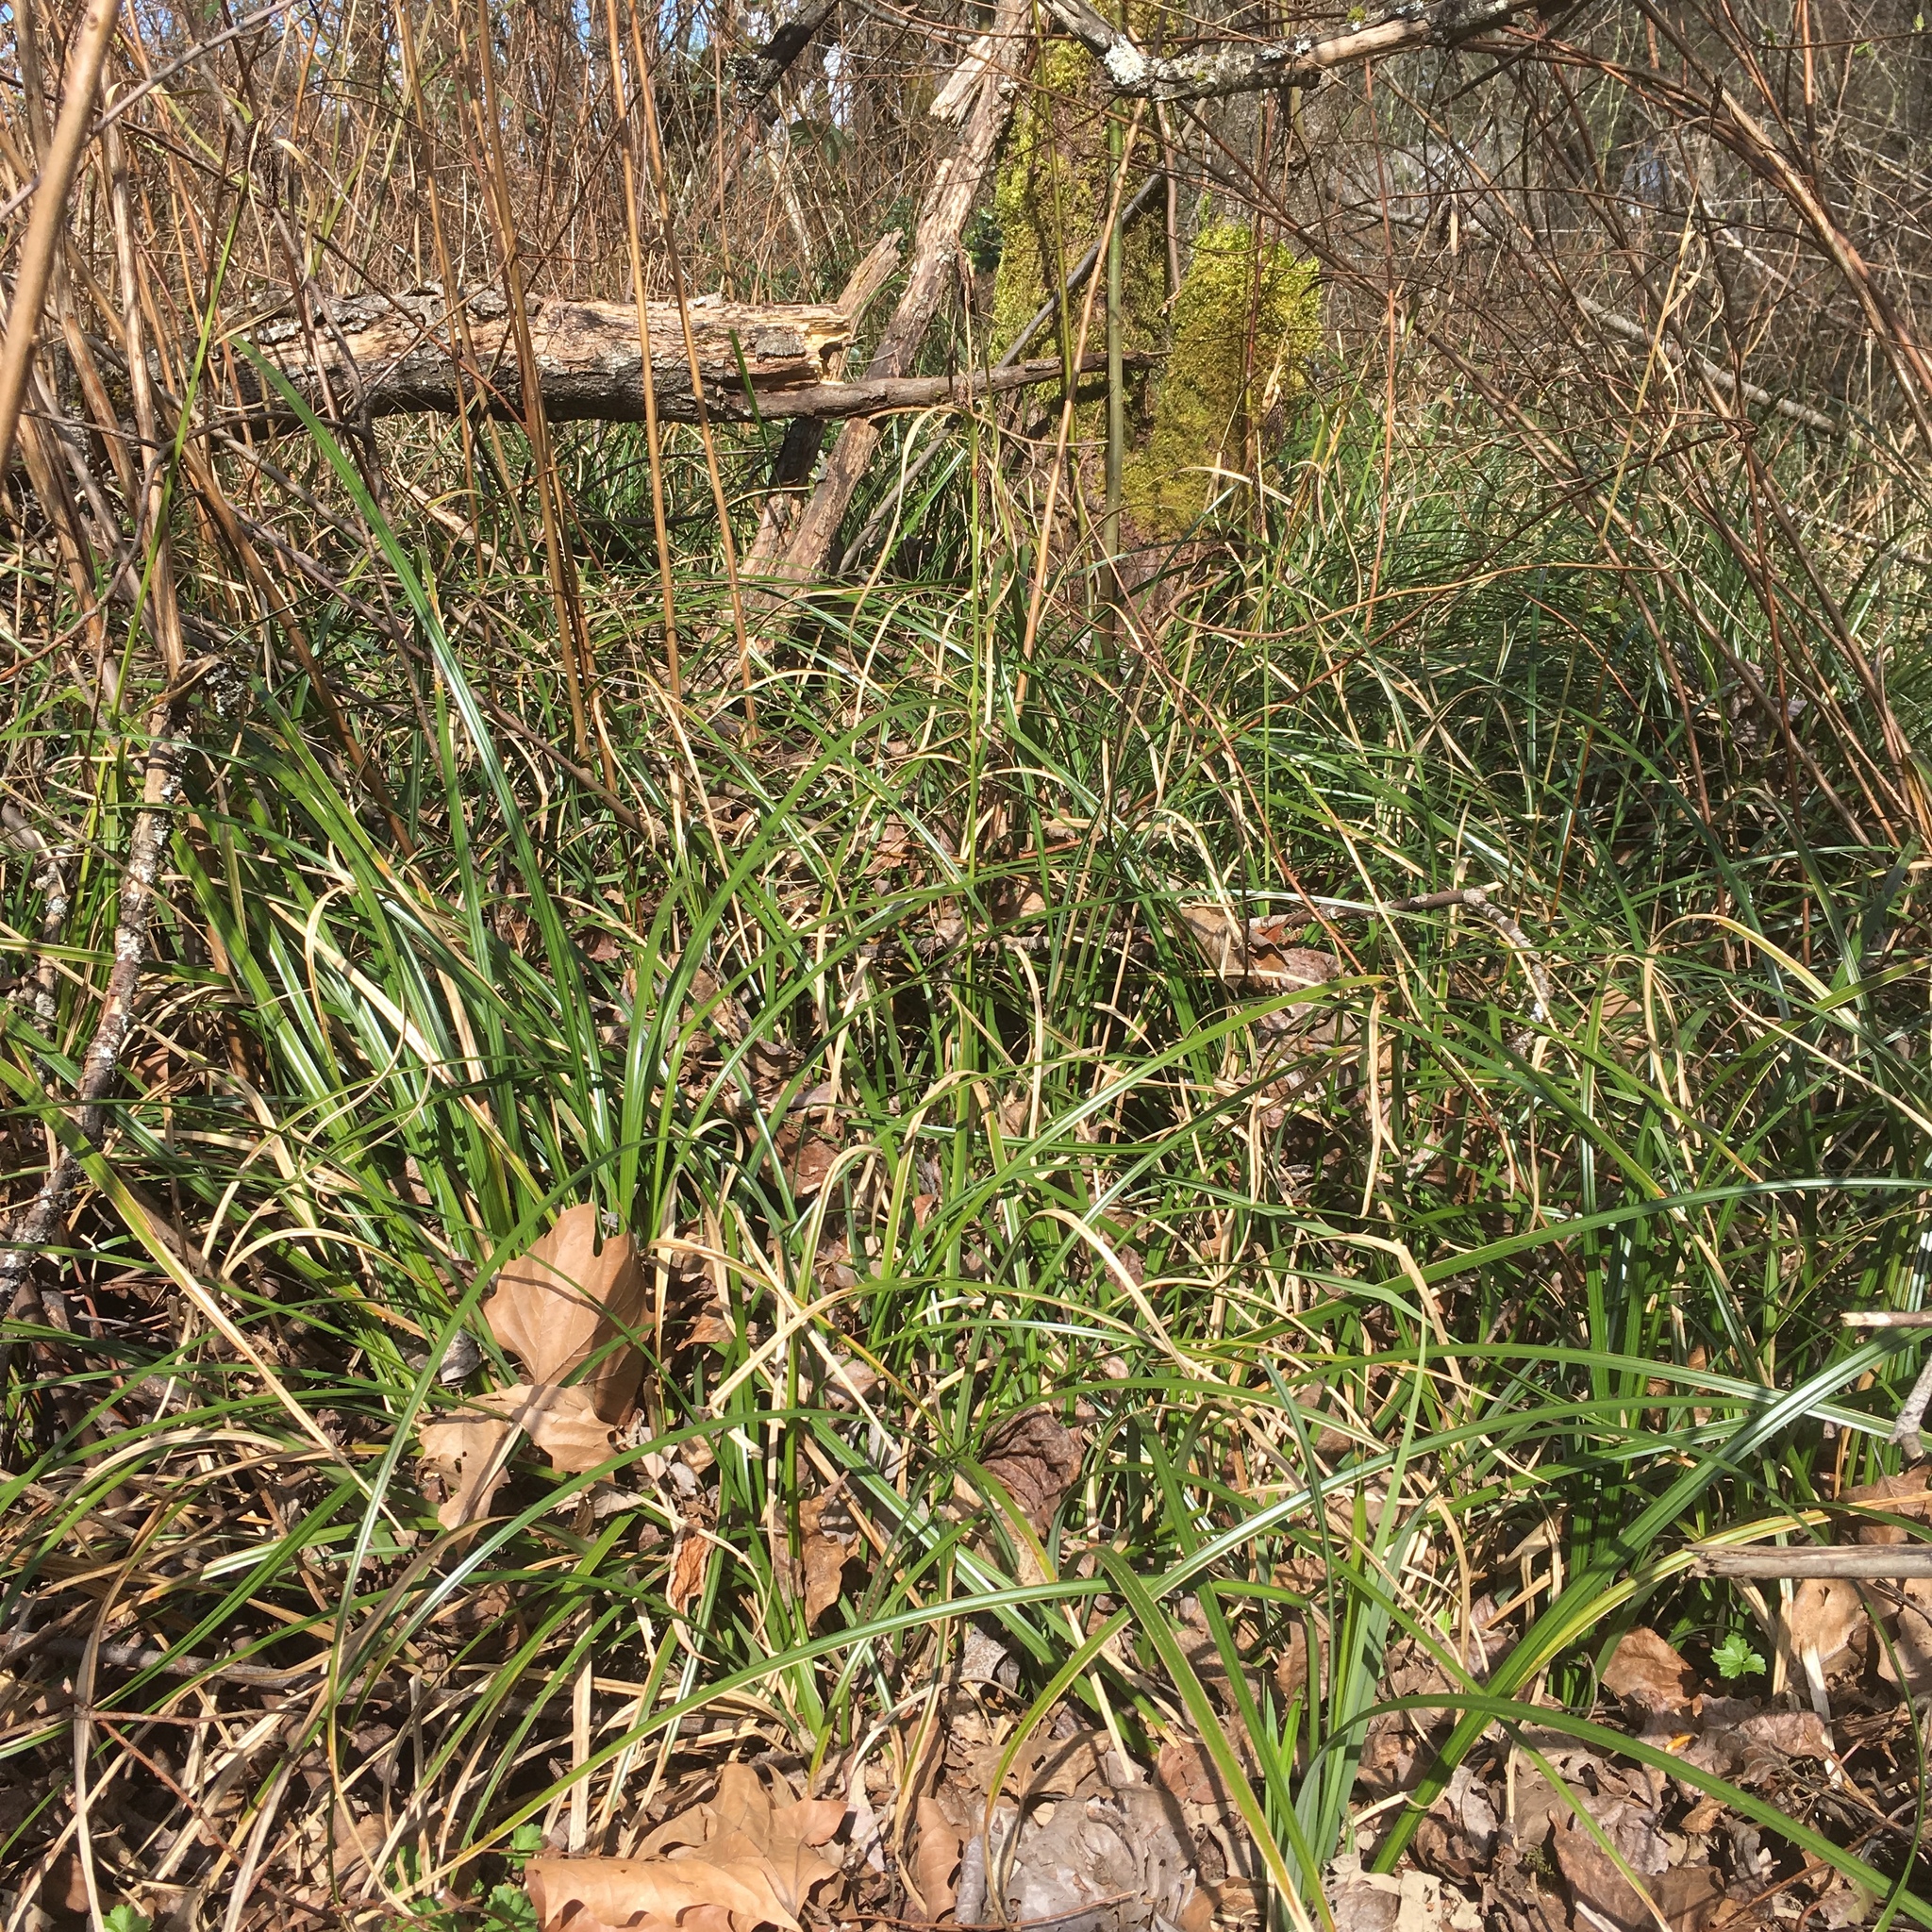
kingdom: Plantae
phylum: Tracheophyta
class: Liliopsida
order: Poales
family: Cyperaceae
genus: Carex
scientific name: Carex obnupta
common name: Slough sedge
